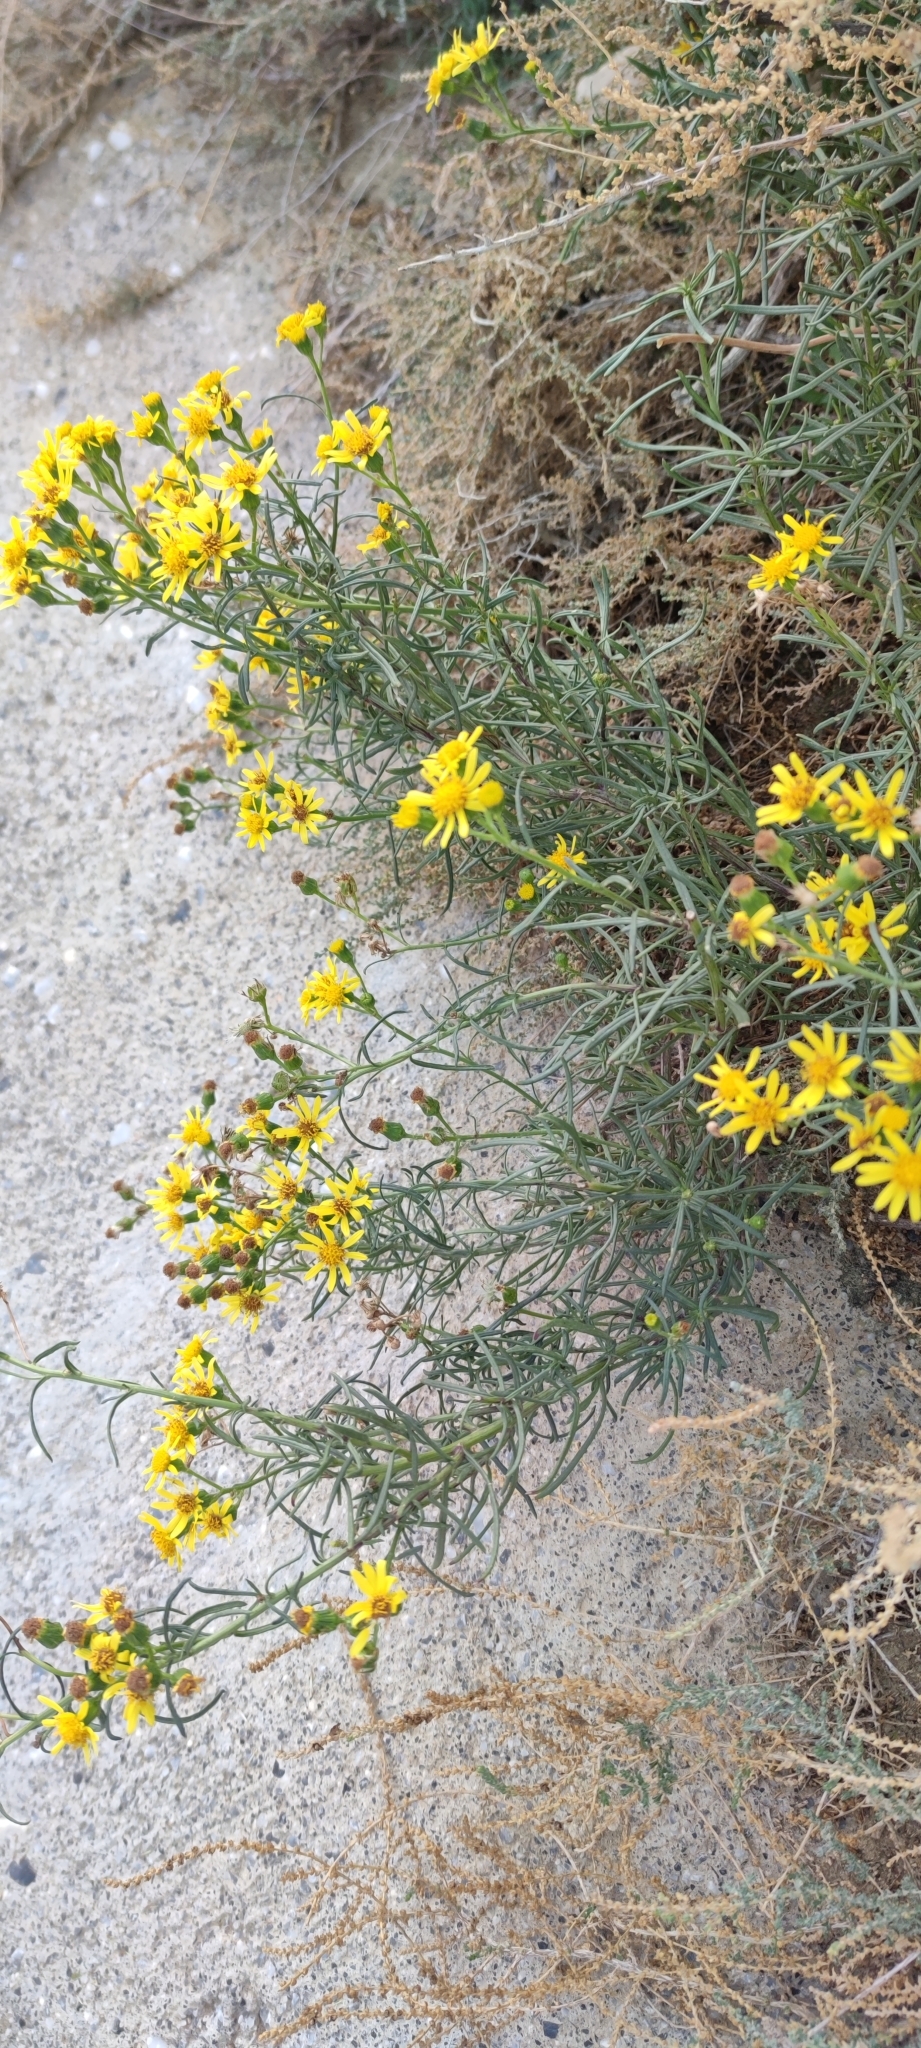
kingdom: Plantae
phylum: Tracheophyta
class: Magnoliopsida
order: Asterales
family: Asteraceae
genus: Senecio
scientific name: Senecio malacitanus
